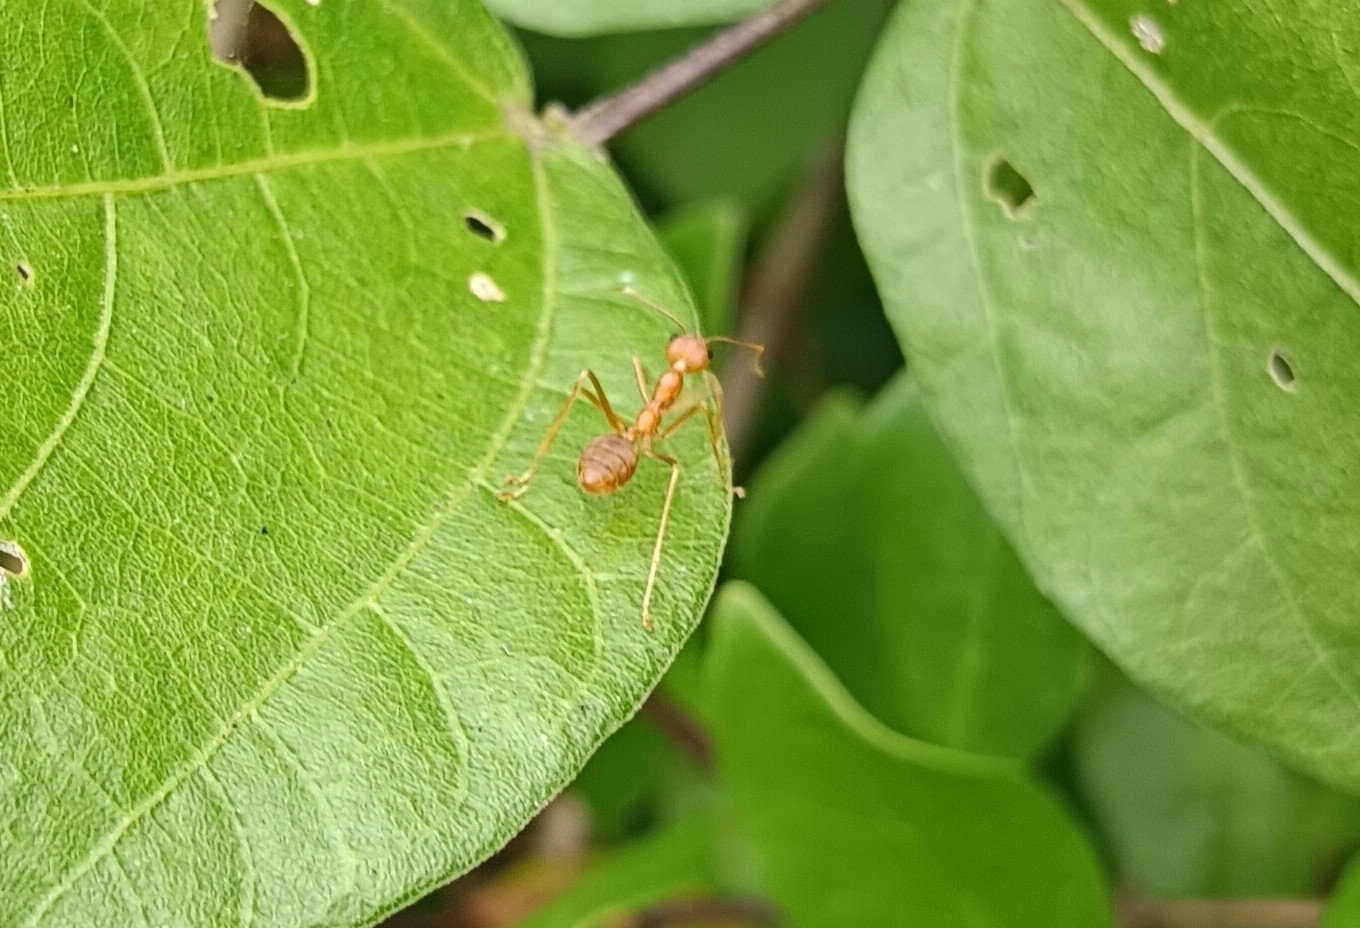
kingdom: Animalia
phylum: Arthropoda
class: Insecta
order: Hymenoptera
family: Formicidae
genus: Oecophylla
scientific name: Oecophylla smaragdina
